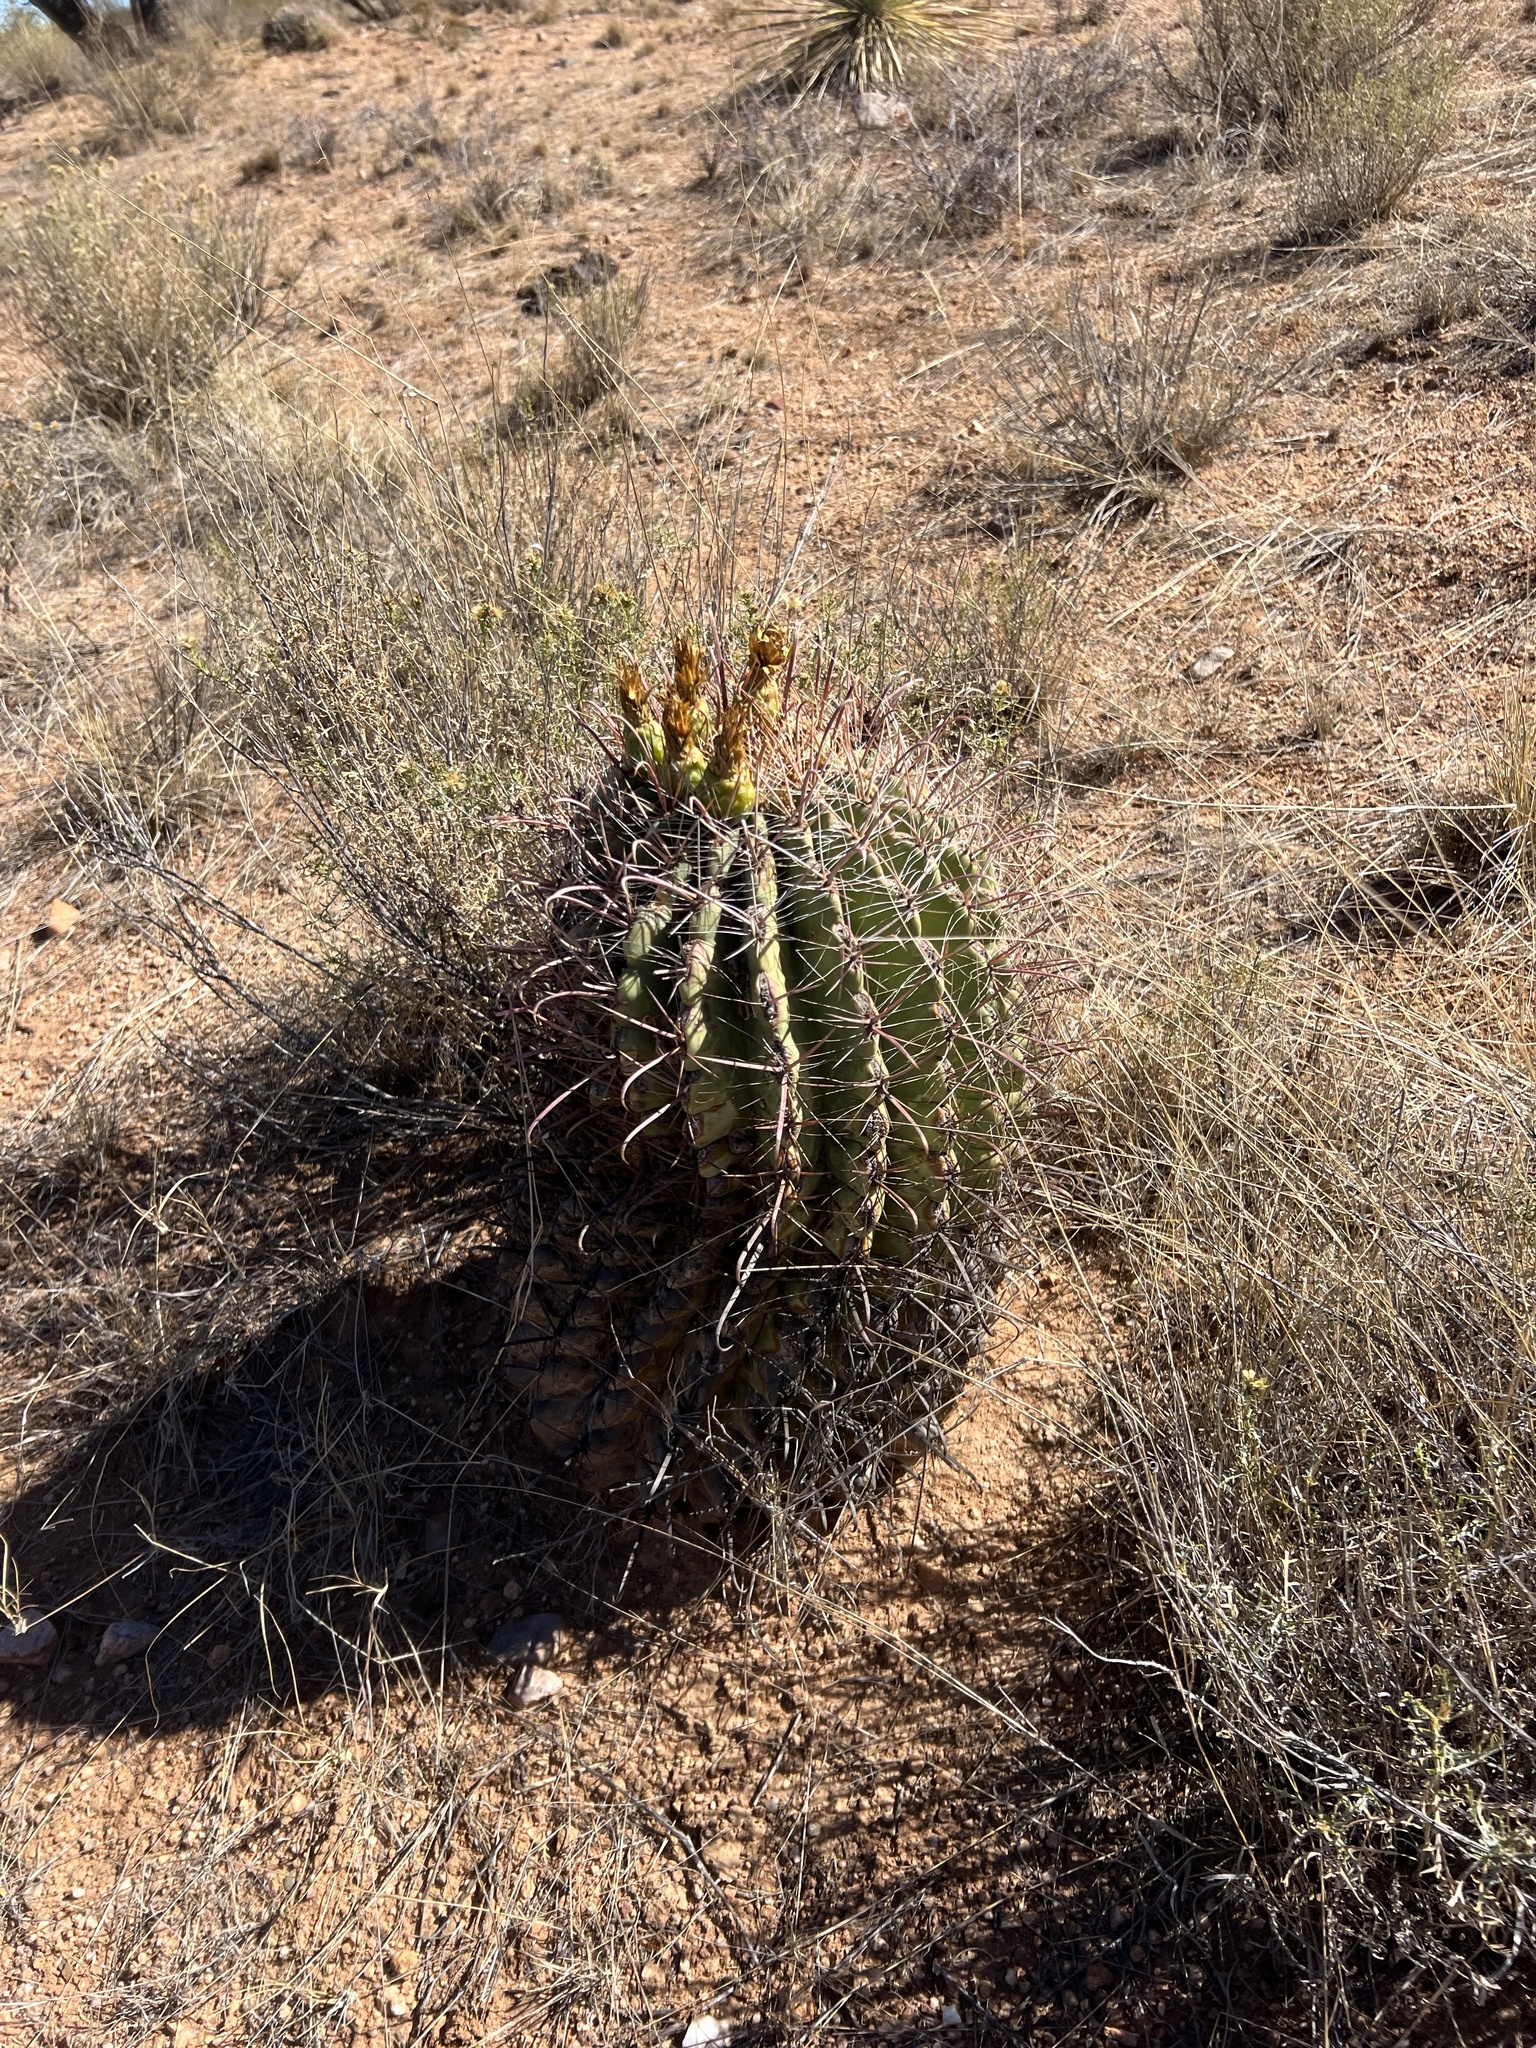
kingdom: Plantae
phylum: Tracheophyta
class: Magnoliopsida
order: Caryophyllales
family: Cactaceae
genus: Ferocactus
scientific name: Ferocactus wislizeni
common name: Candy barrel cactus
